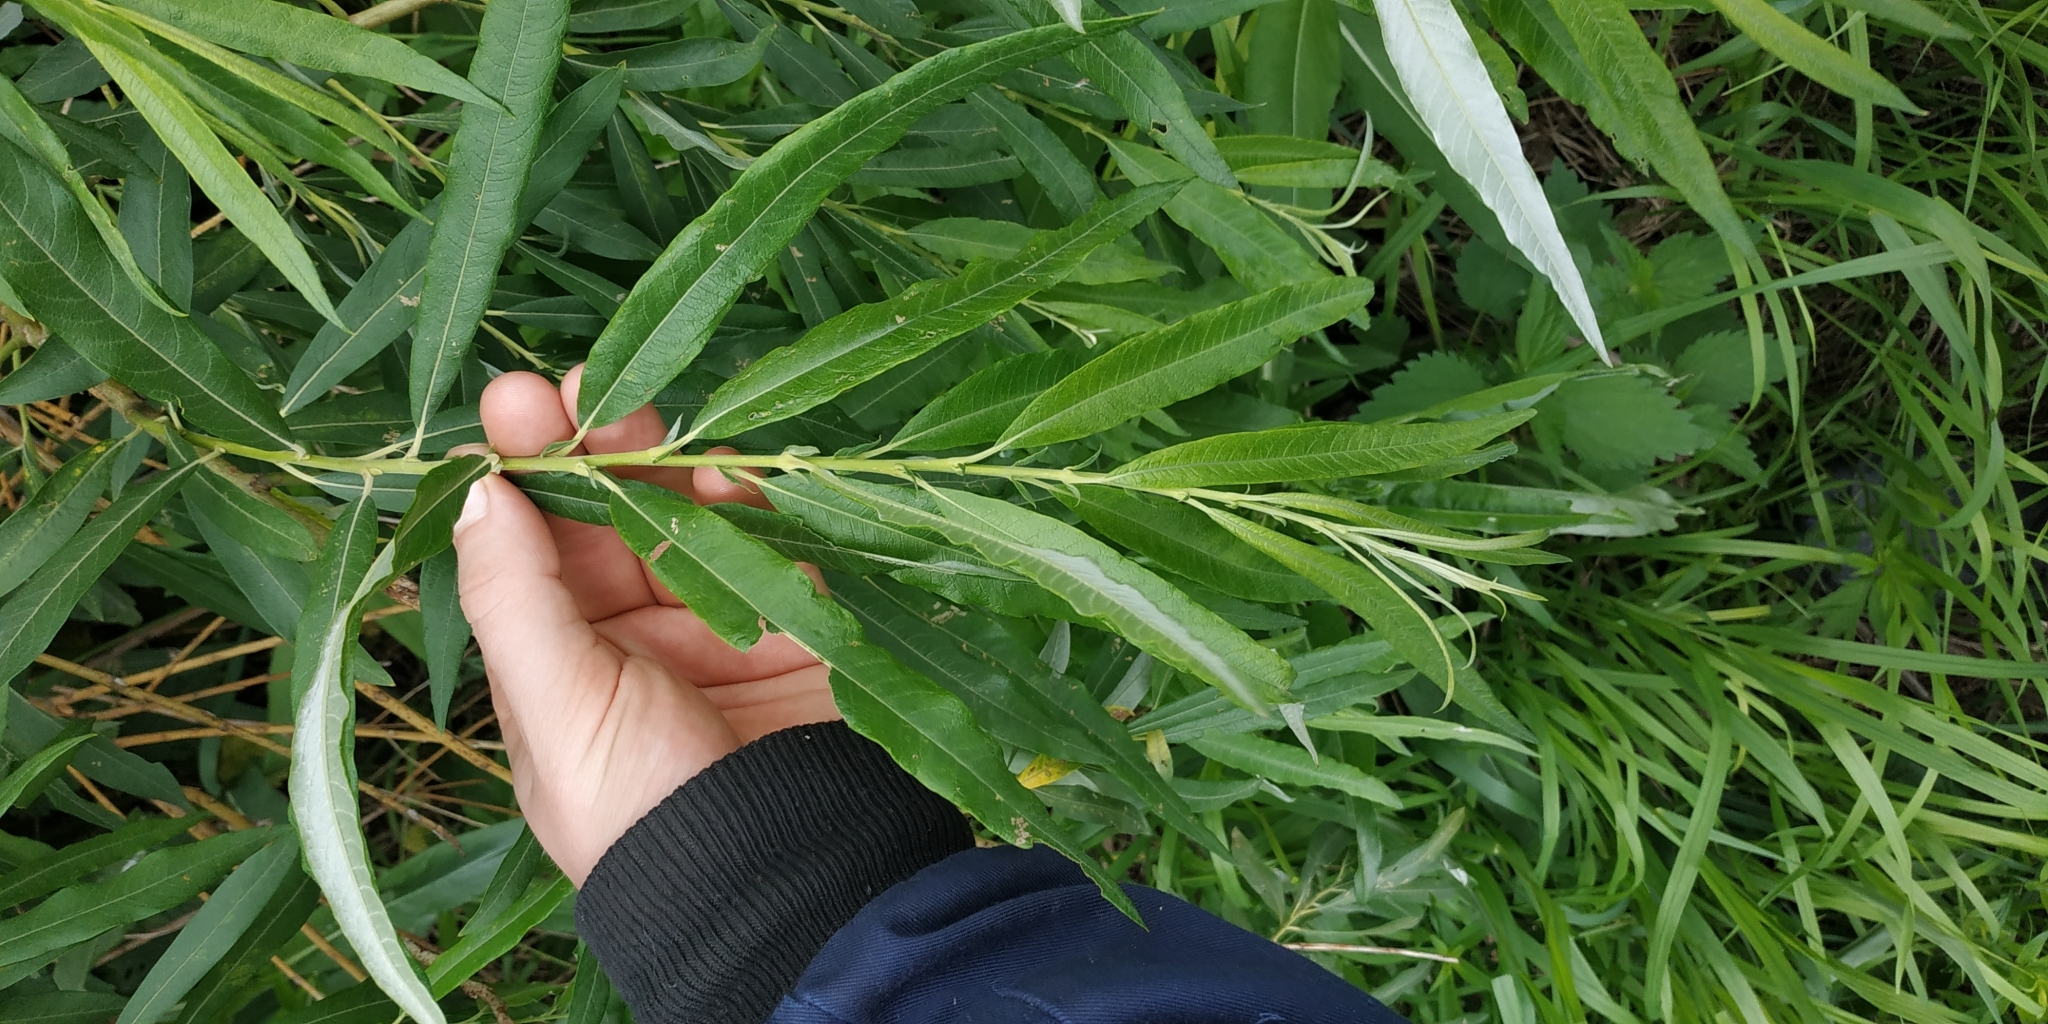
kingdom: Plantae
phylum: Tracheophyta
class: Magnoliopsida
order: Malpighiales
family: Salicaceae
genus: Salix
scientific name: Salix viminalis
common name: Osier
